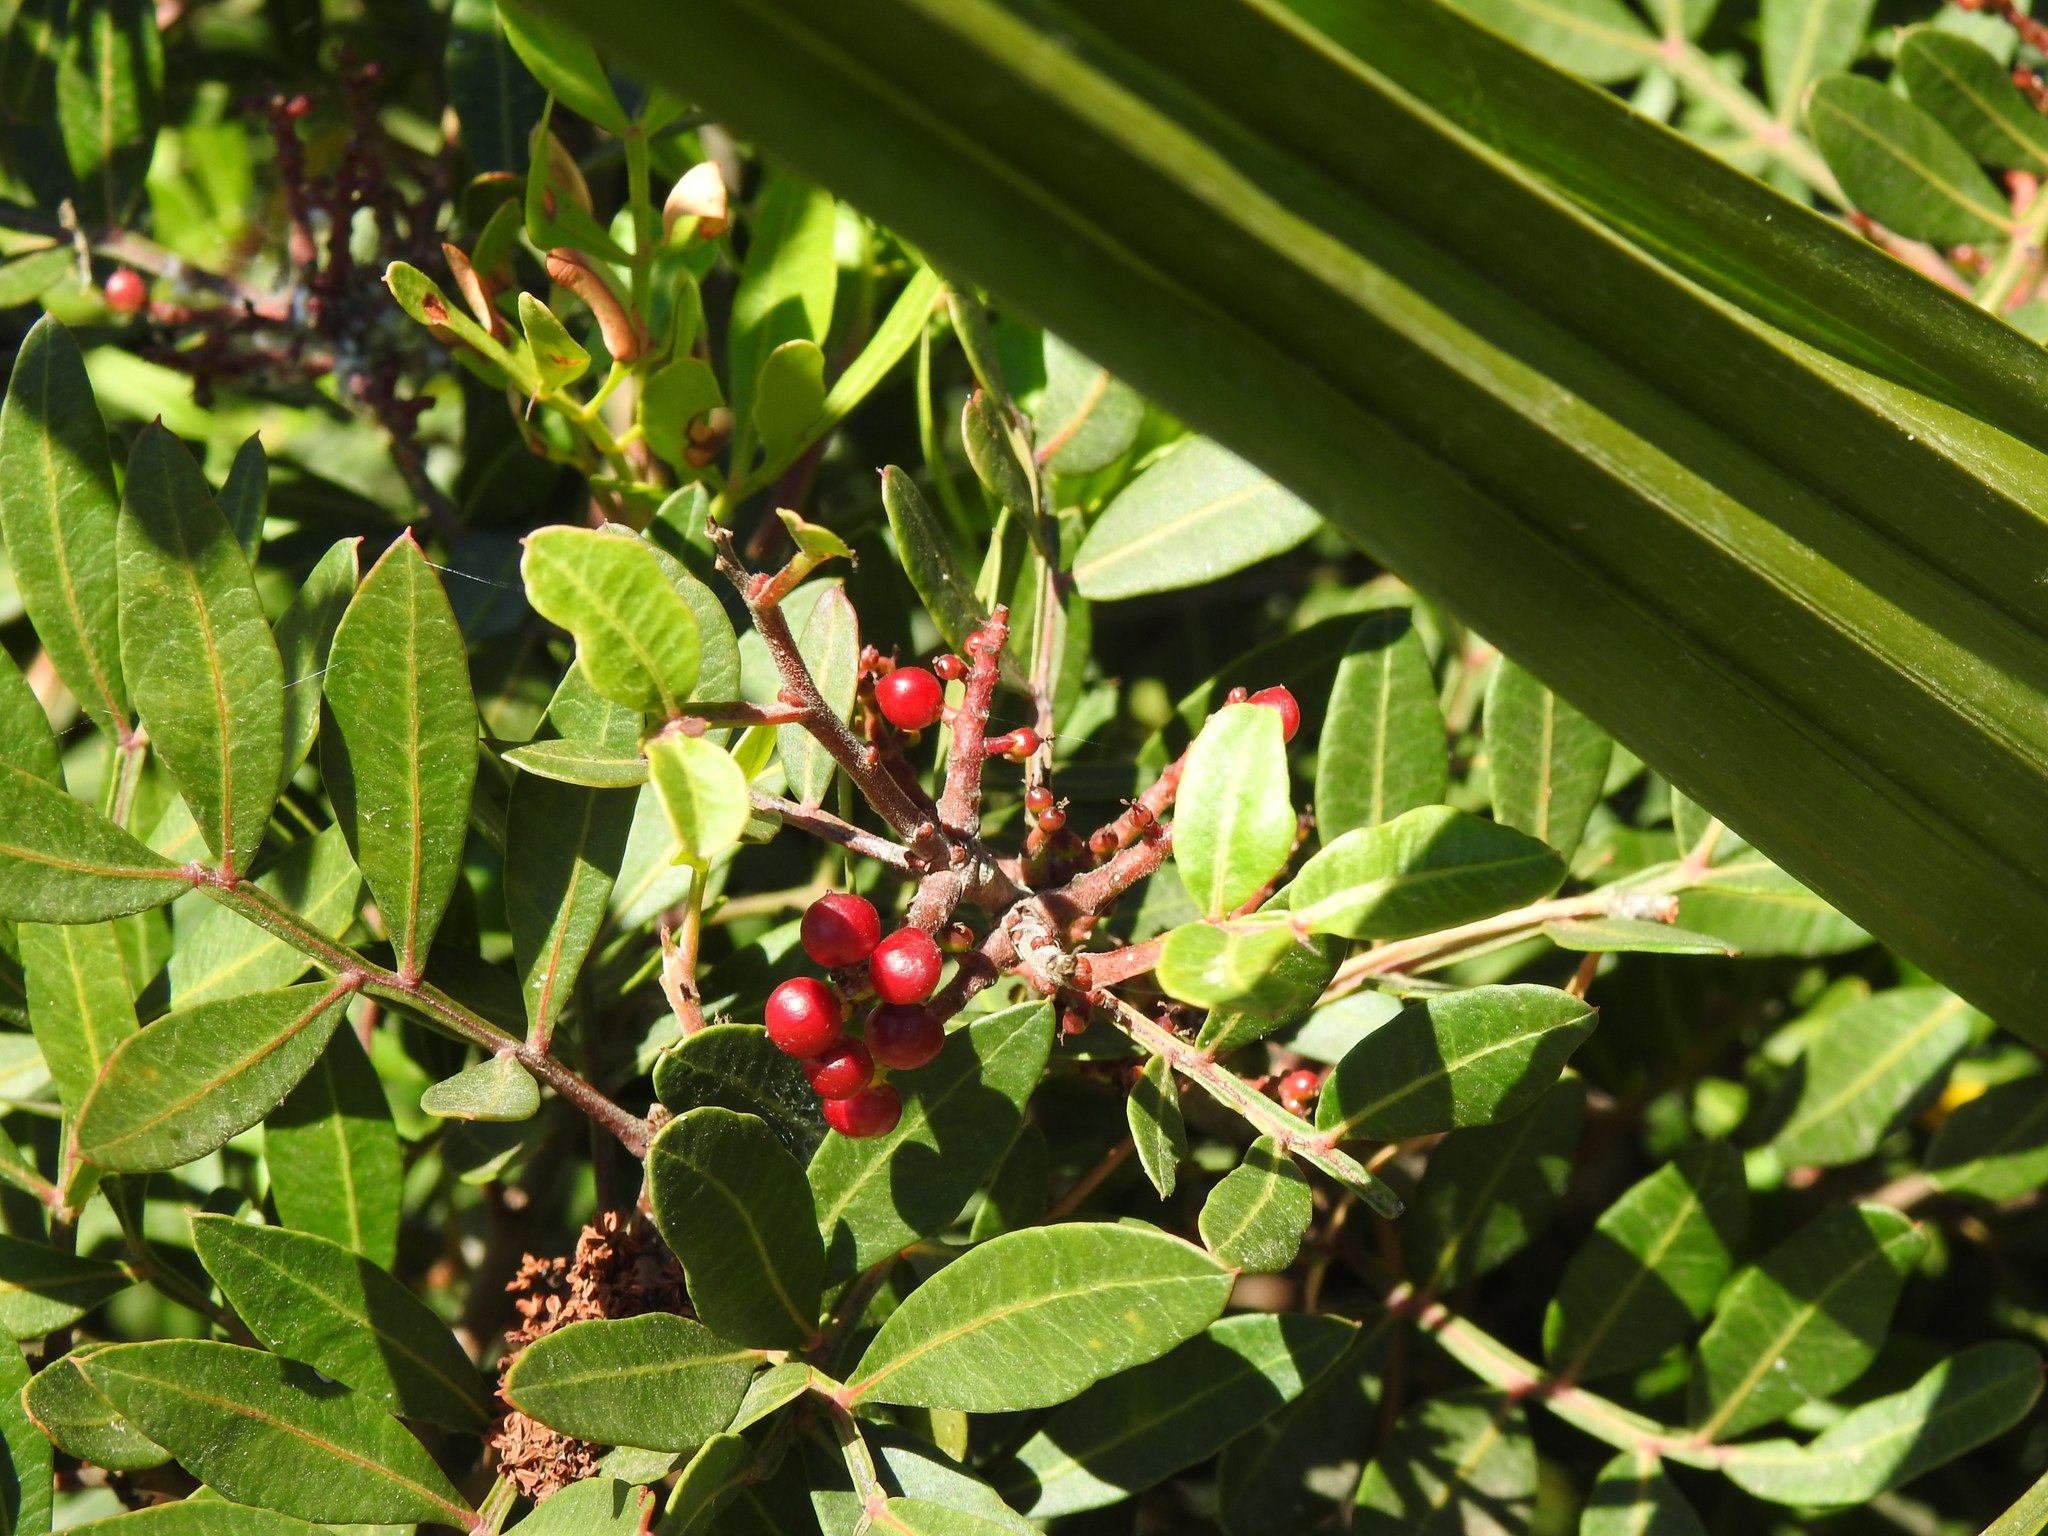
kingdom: Plantae
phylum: Tracheophyta
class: Magnoliopsida
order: Sapindales
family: Anacardiaceae
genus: Pistacia
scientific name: Pistacia lentiscus
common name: Lentisk
